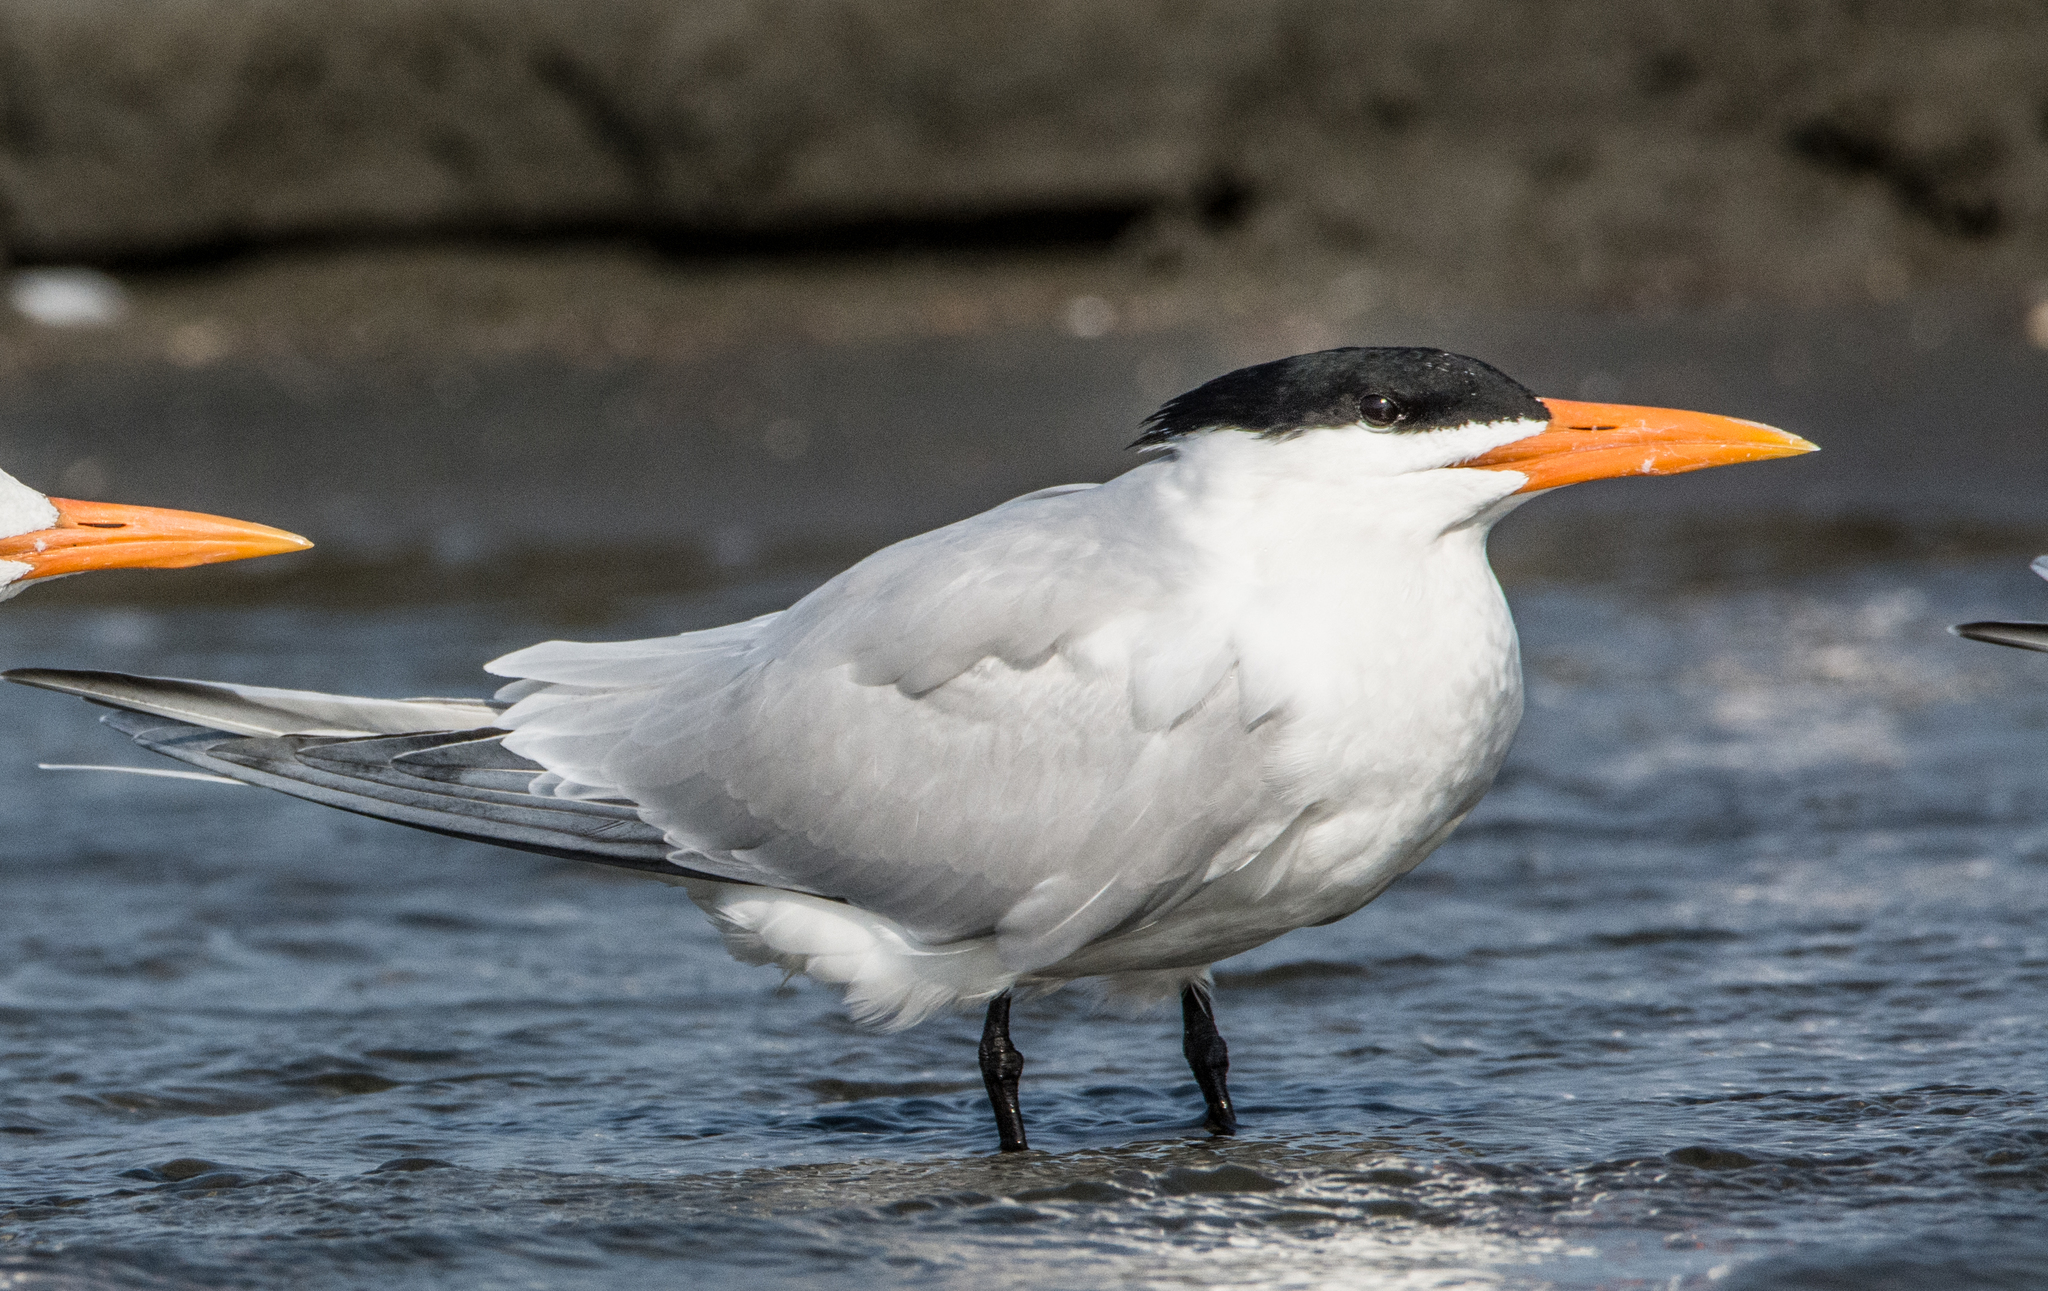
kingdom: Animalia
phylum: Chordata
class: Aves
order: Charadriiformes
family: Laridae
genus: Thalasseus
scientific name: Thalasseus maximus
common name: Royal tern
